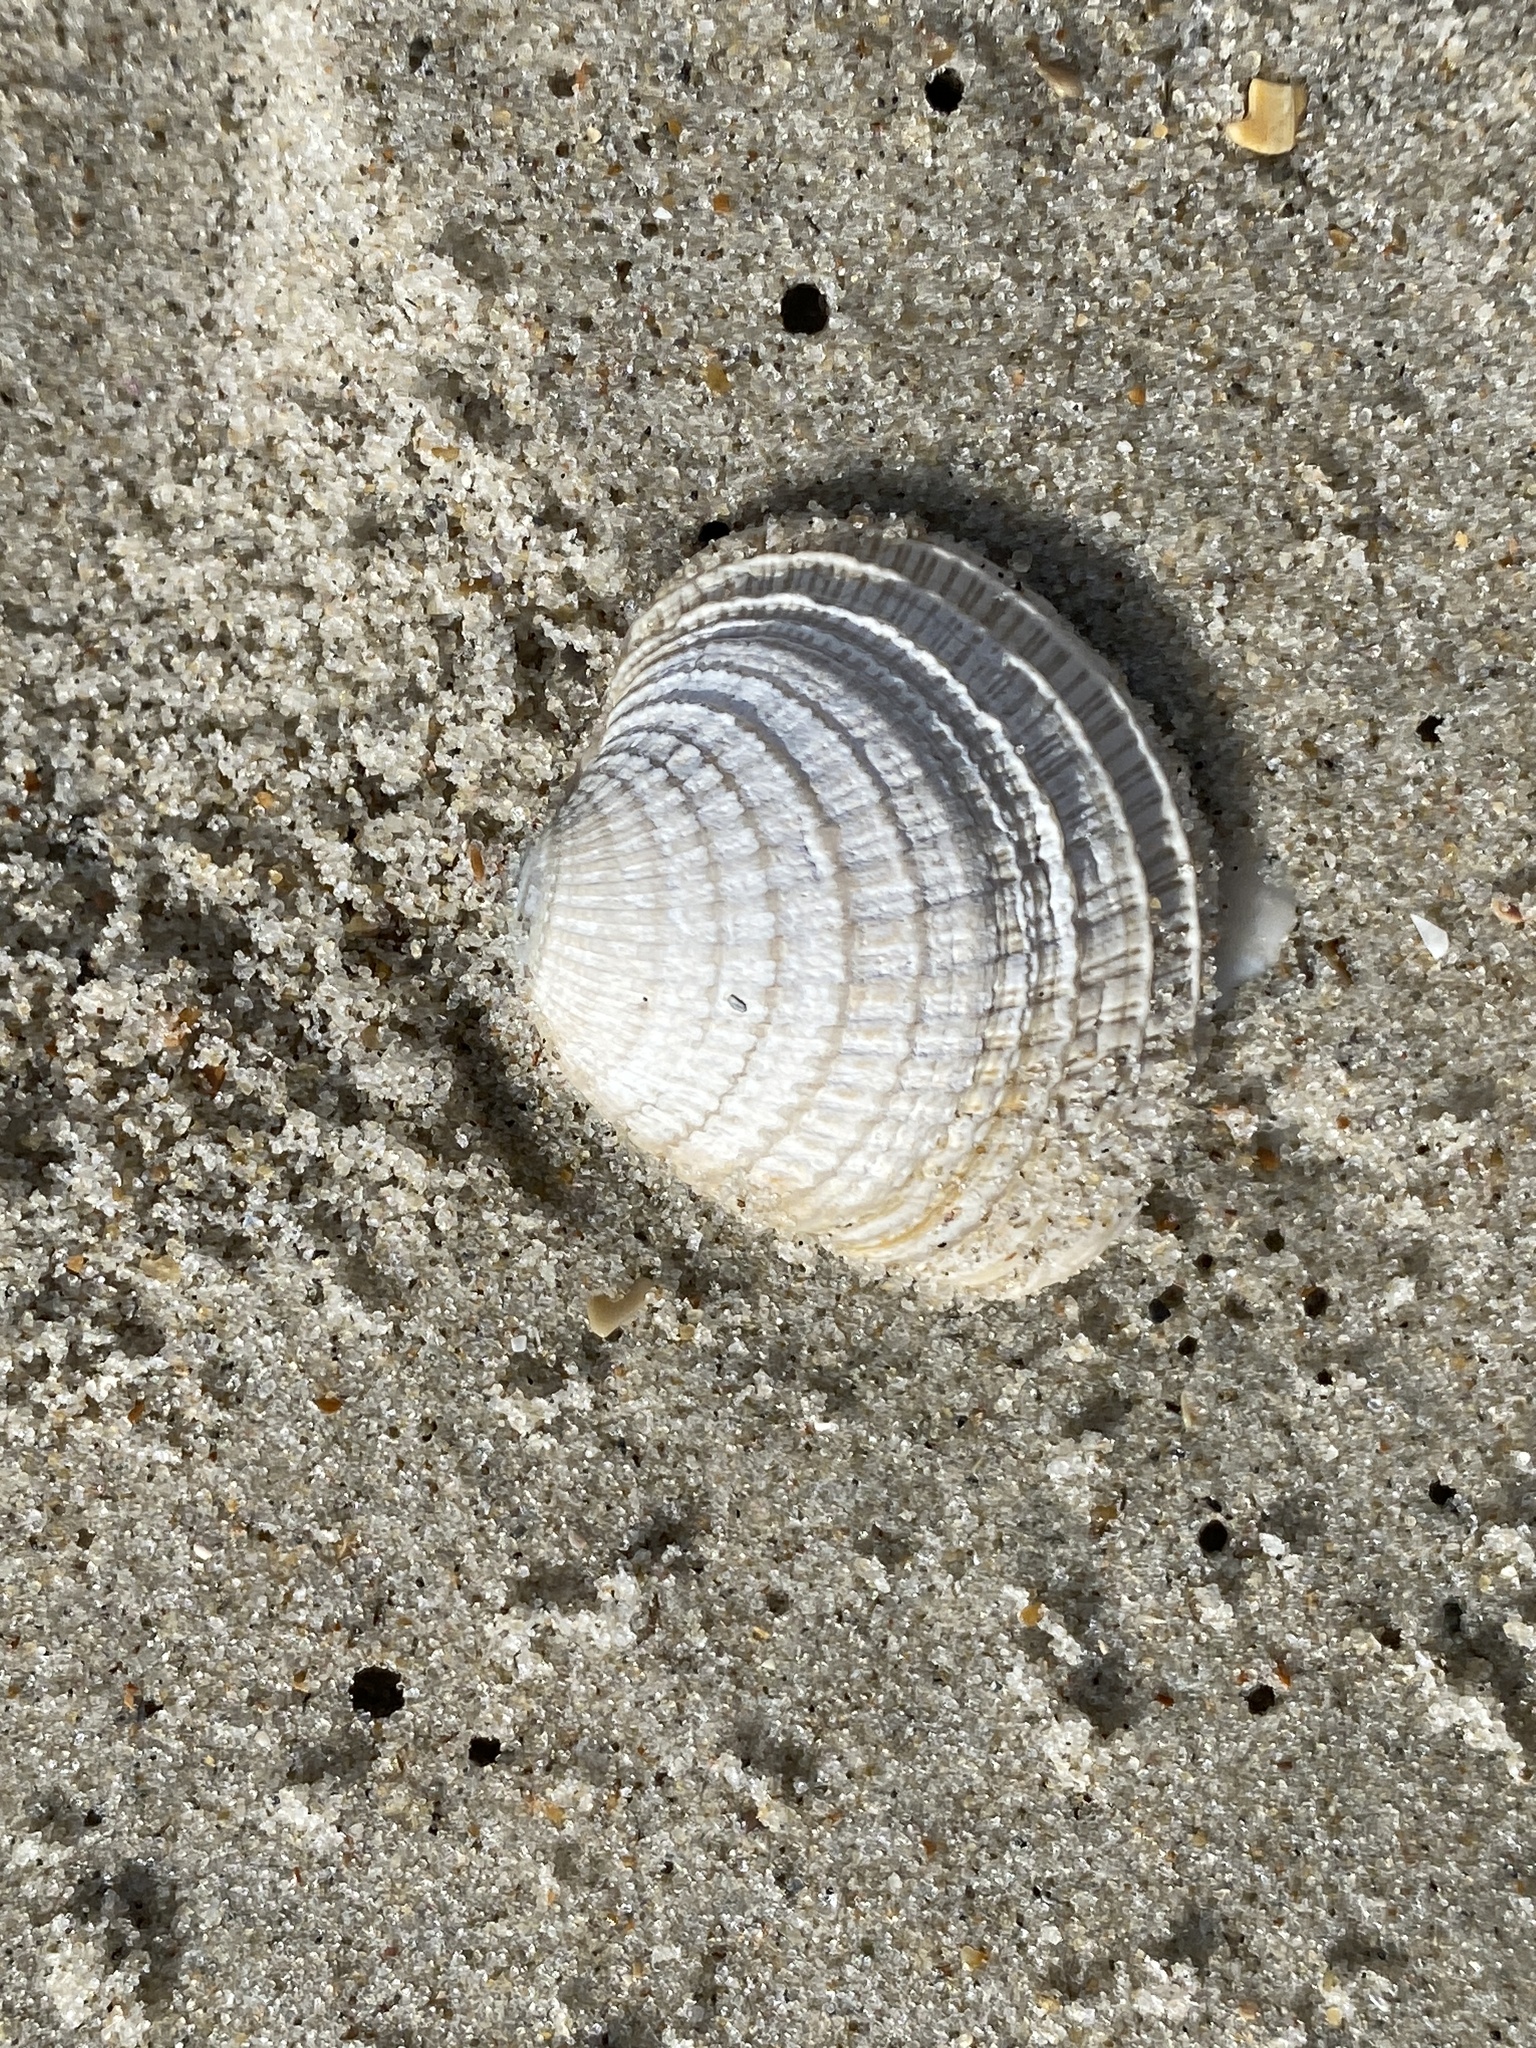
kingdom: Animalia
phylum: Mollusca
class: Bivalvia
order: Venerida
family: Veneridae
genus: Chione
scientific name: Chione elevata
